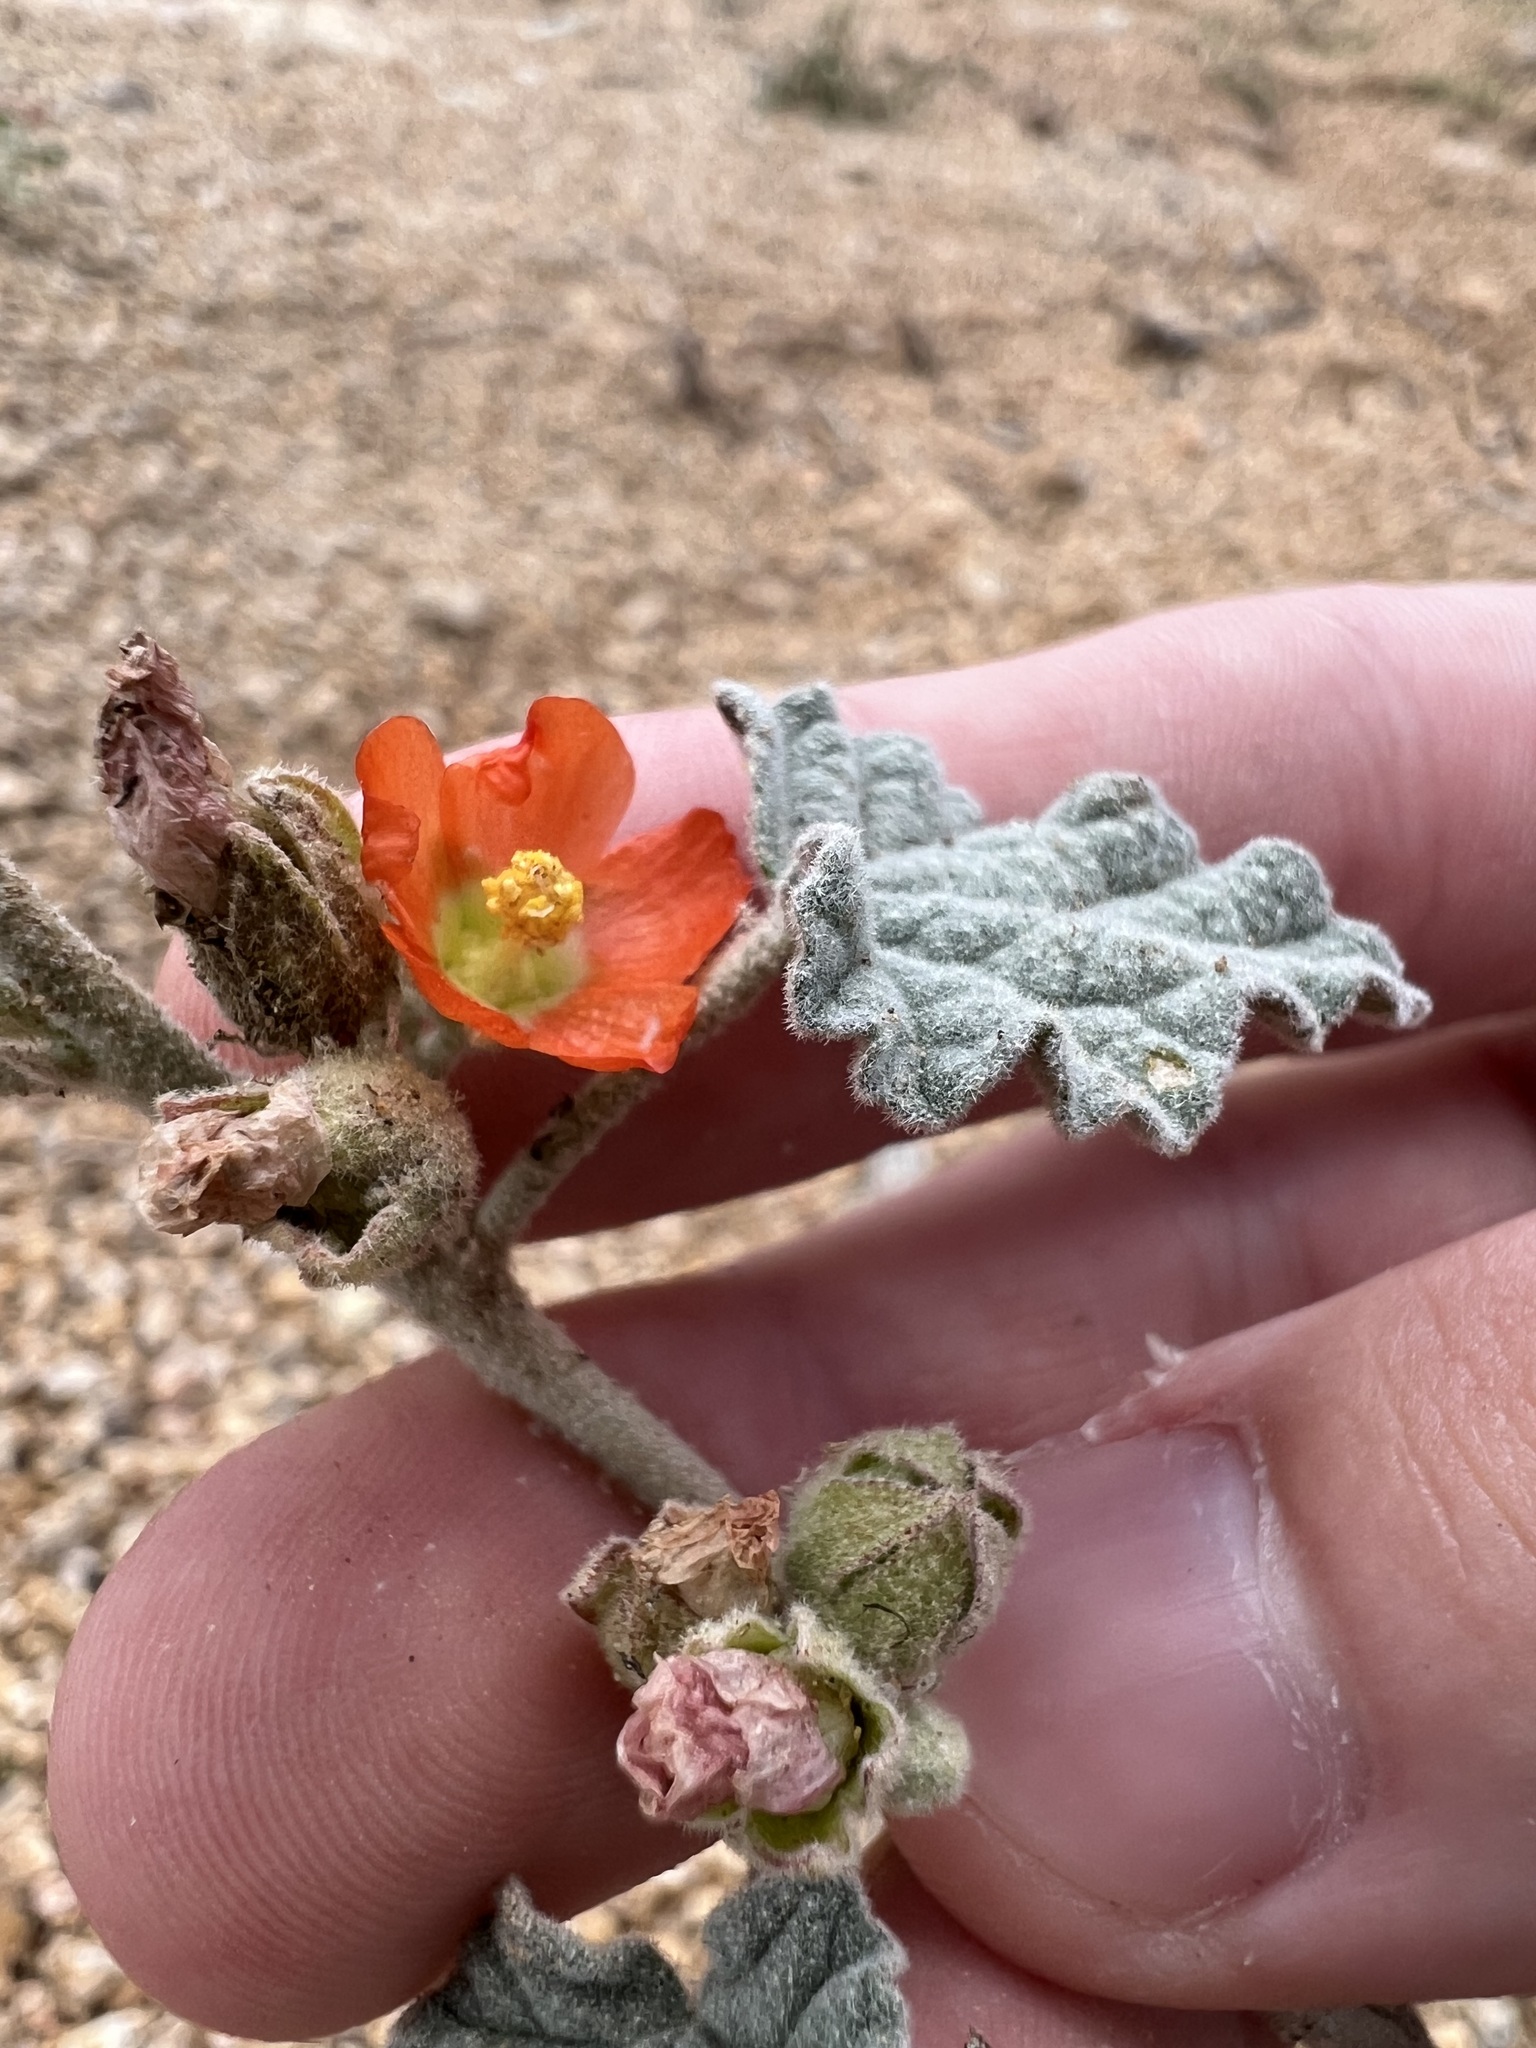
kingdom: Plantae
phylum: Tracheophyta
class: Magnoliopsida
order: Malvales
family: Malvaceae
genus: Sphaeralcea
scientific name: Sphaeralcea ambigua
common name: Apricot globe-mallow
